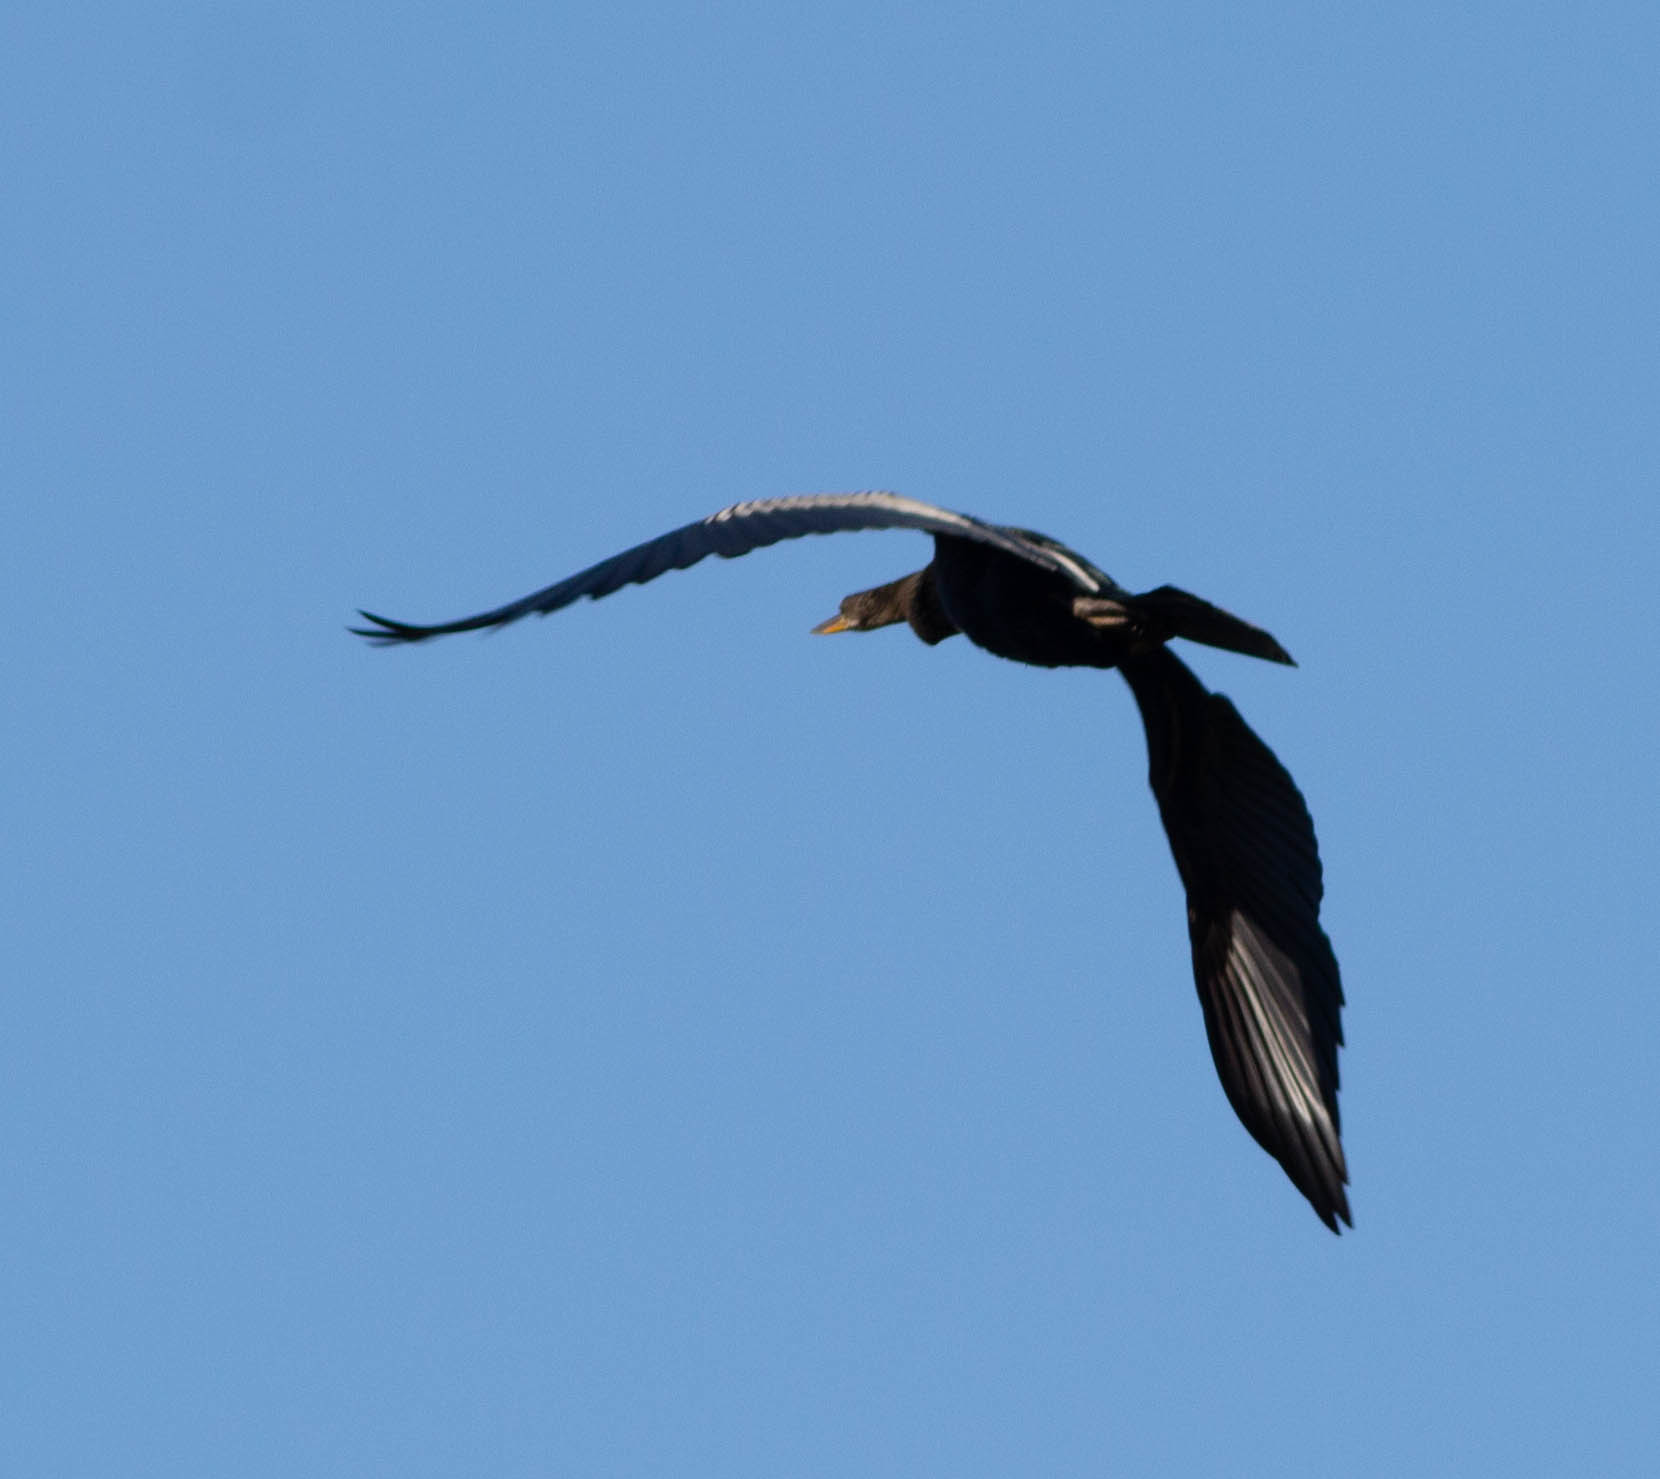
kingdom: Animalia
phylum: Chordata
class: Aves
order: Suliformes
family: Anhingidae
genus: Anhinga
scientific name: Anhinga anhinga
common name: Anhinga
